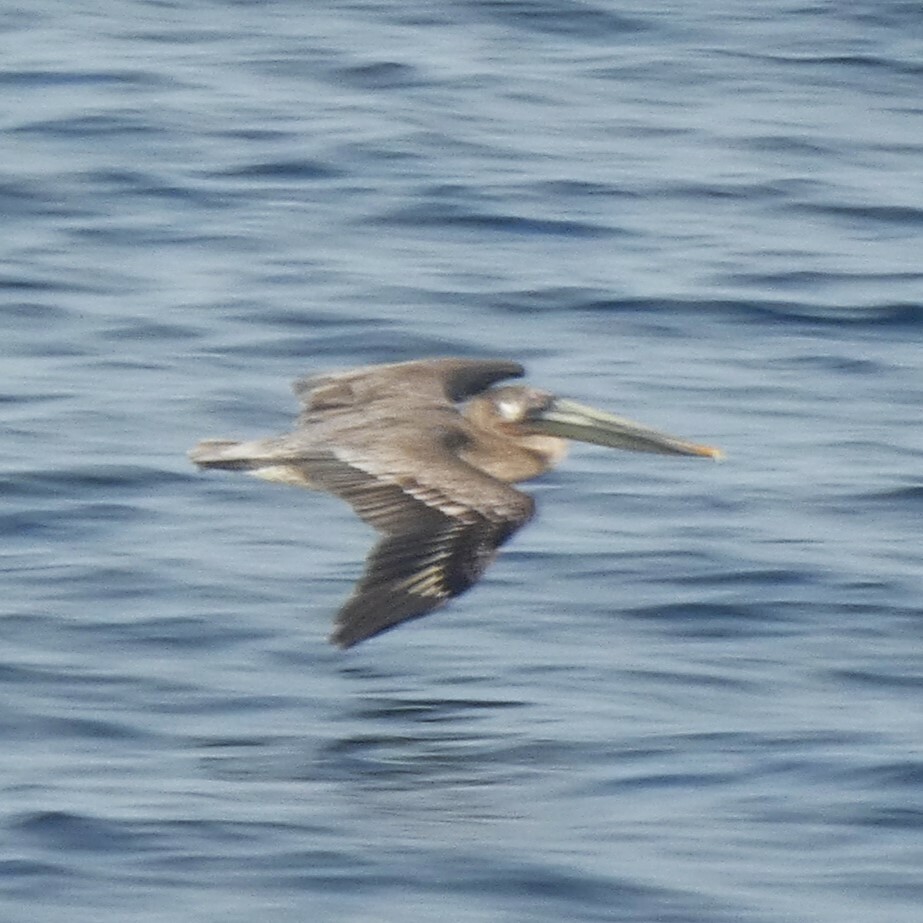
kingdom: Animalia
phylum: Chordata
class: Aves
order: Pelecaniformes
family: Pelecanidae
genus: Pelecanus
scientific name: Pelecanus occidentalis
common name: Brown pelican
